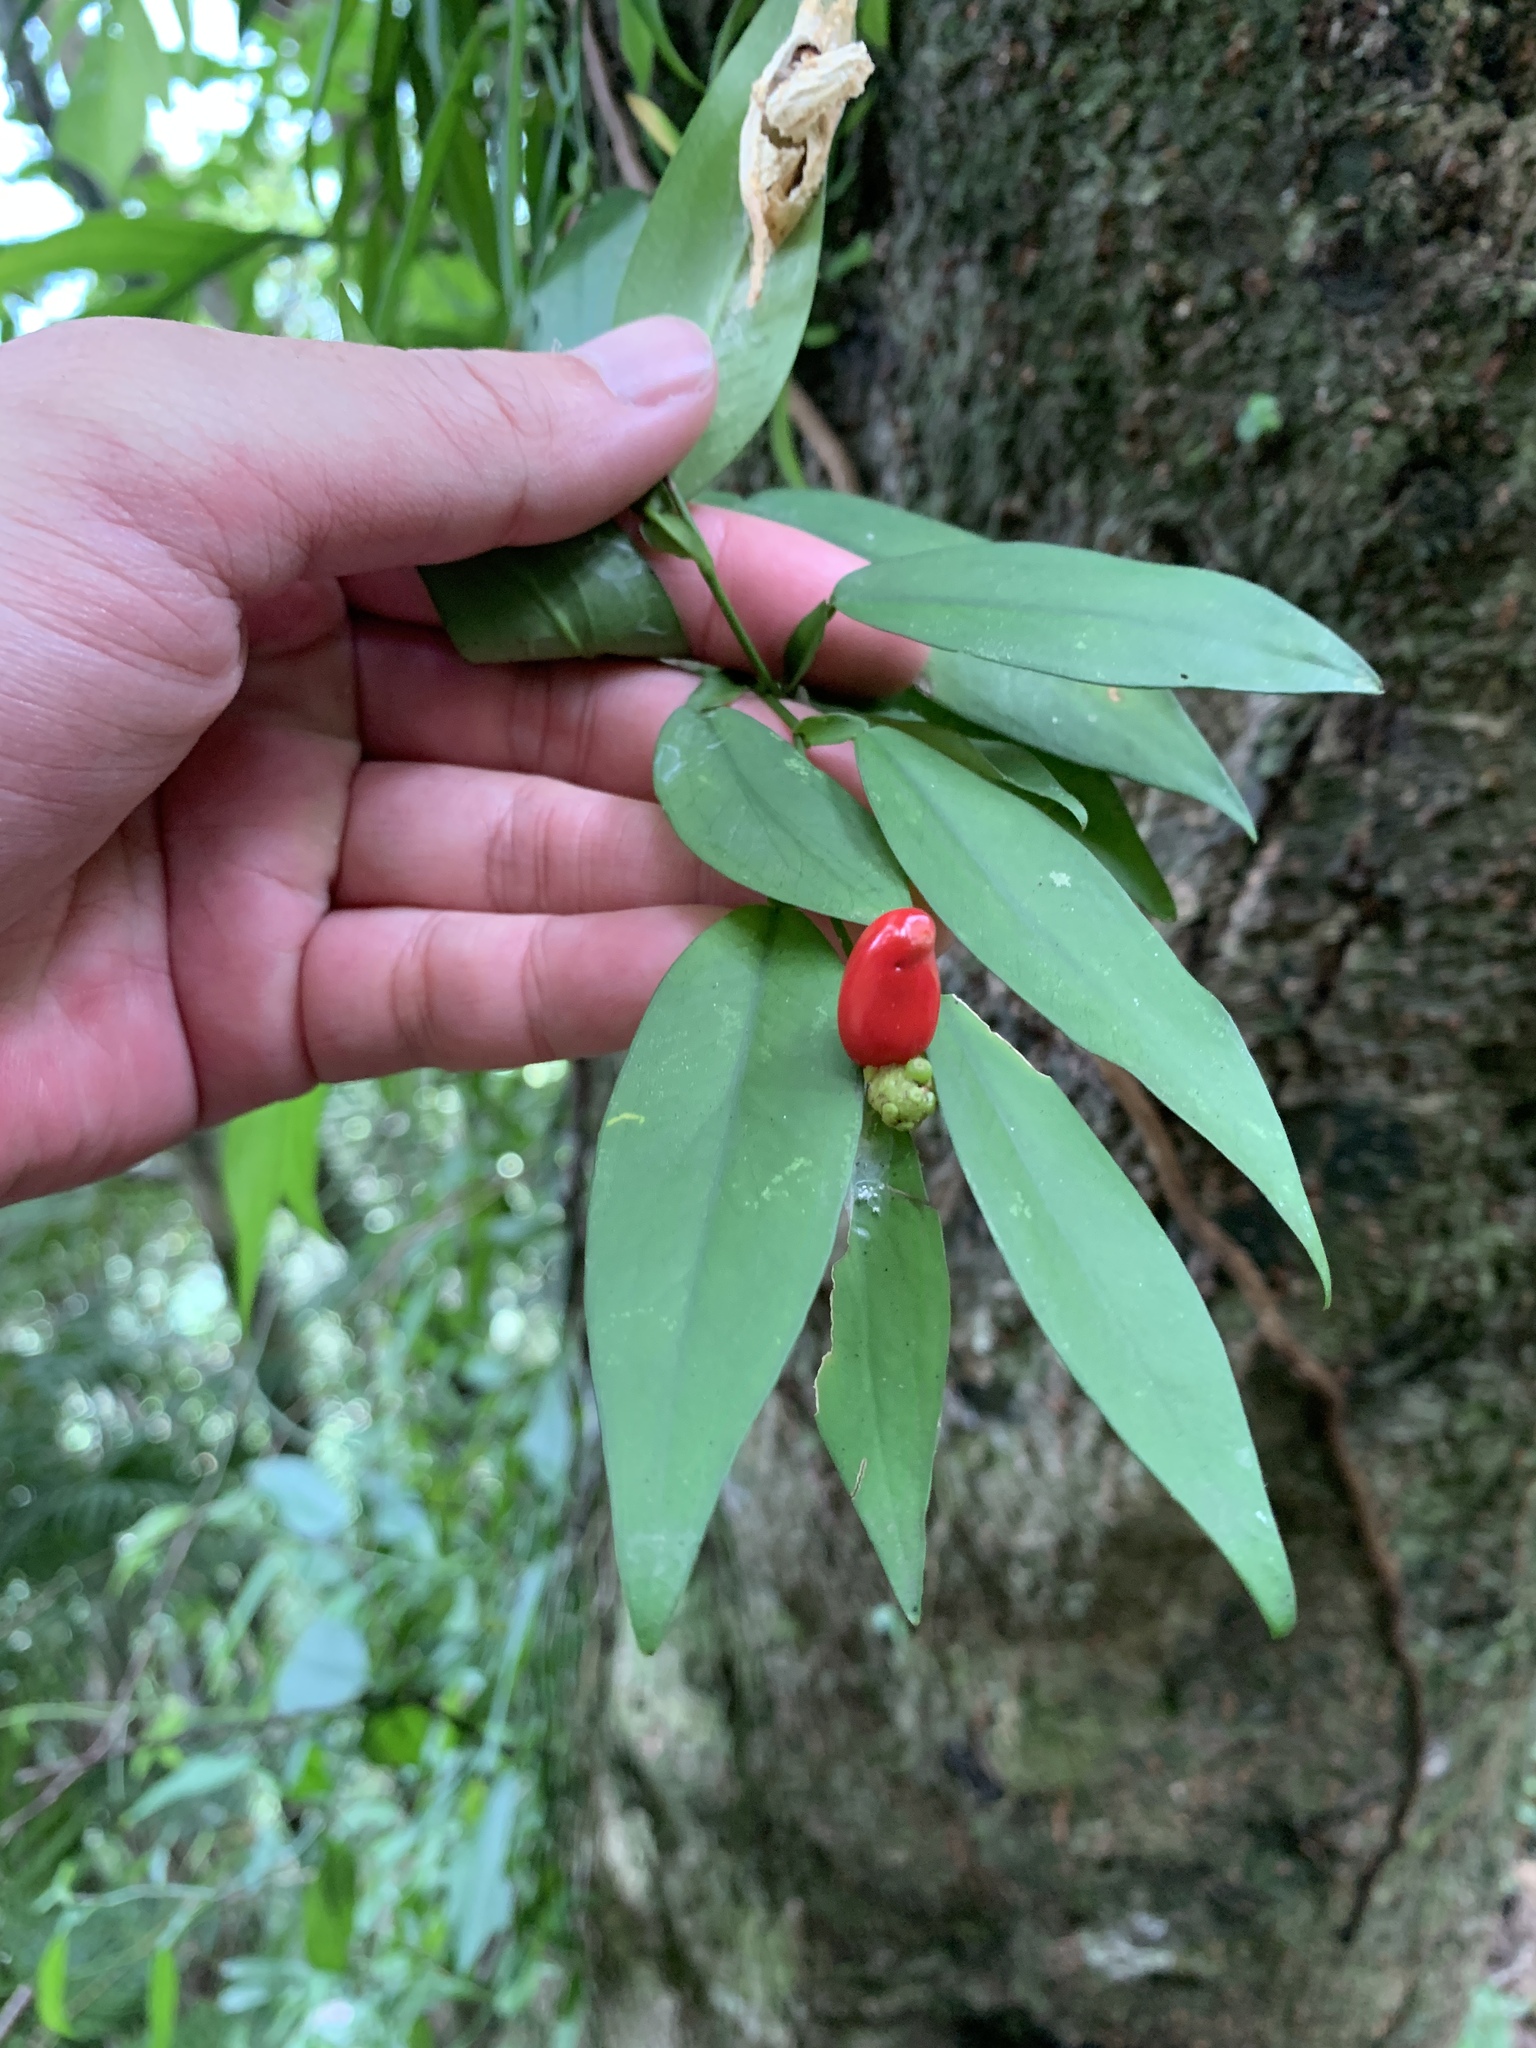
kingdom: Plantae
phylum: Tracheophyta
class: Liliopsida
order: Alismatales
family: Araceae
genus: Pothos
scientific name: Pothos chinensis
